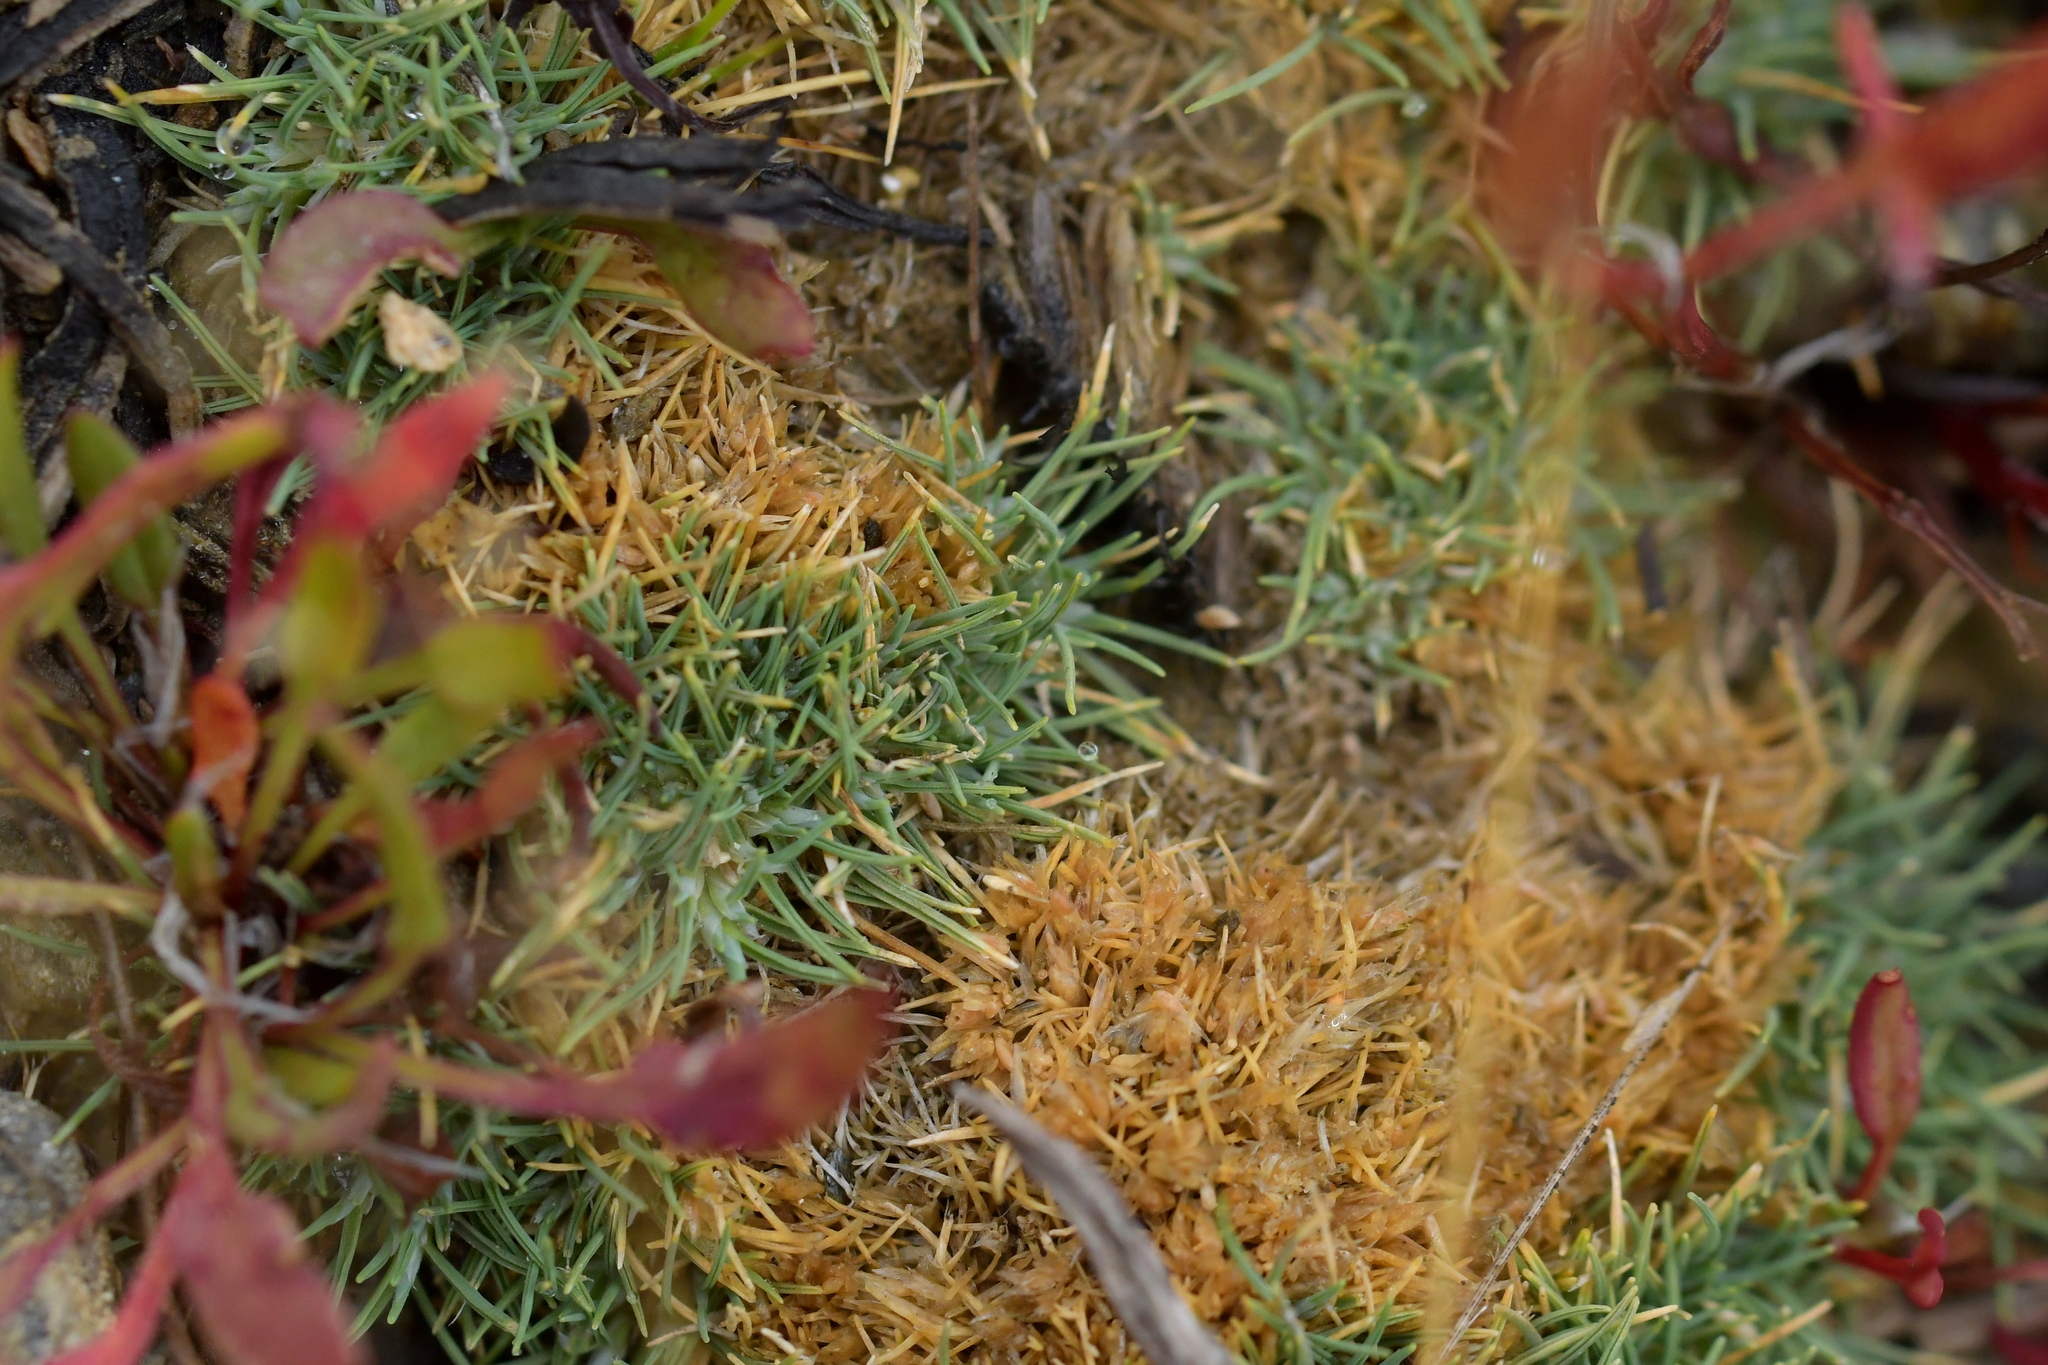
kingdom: Plantae
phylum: Tracheophyta
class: Liliopsida
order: Poales
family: Poaceae
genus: Agrostis
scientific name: Agrostis muscosa
